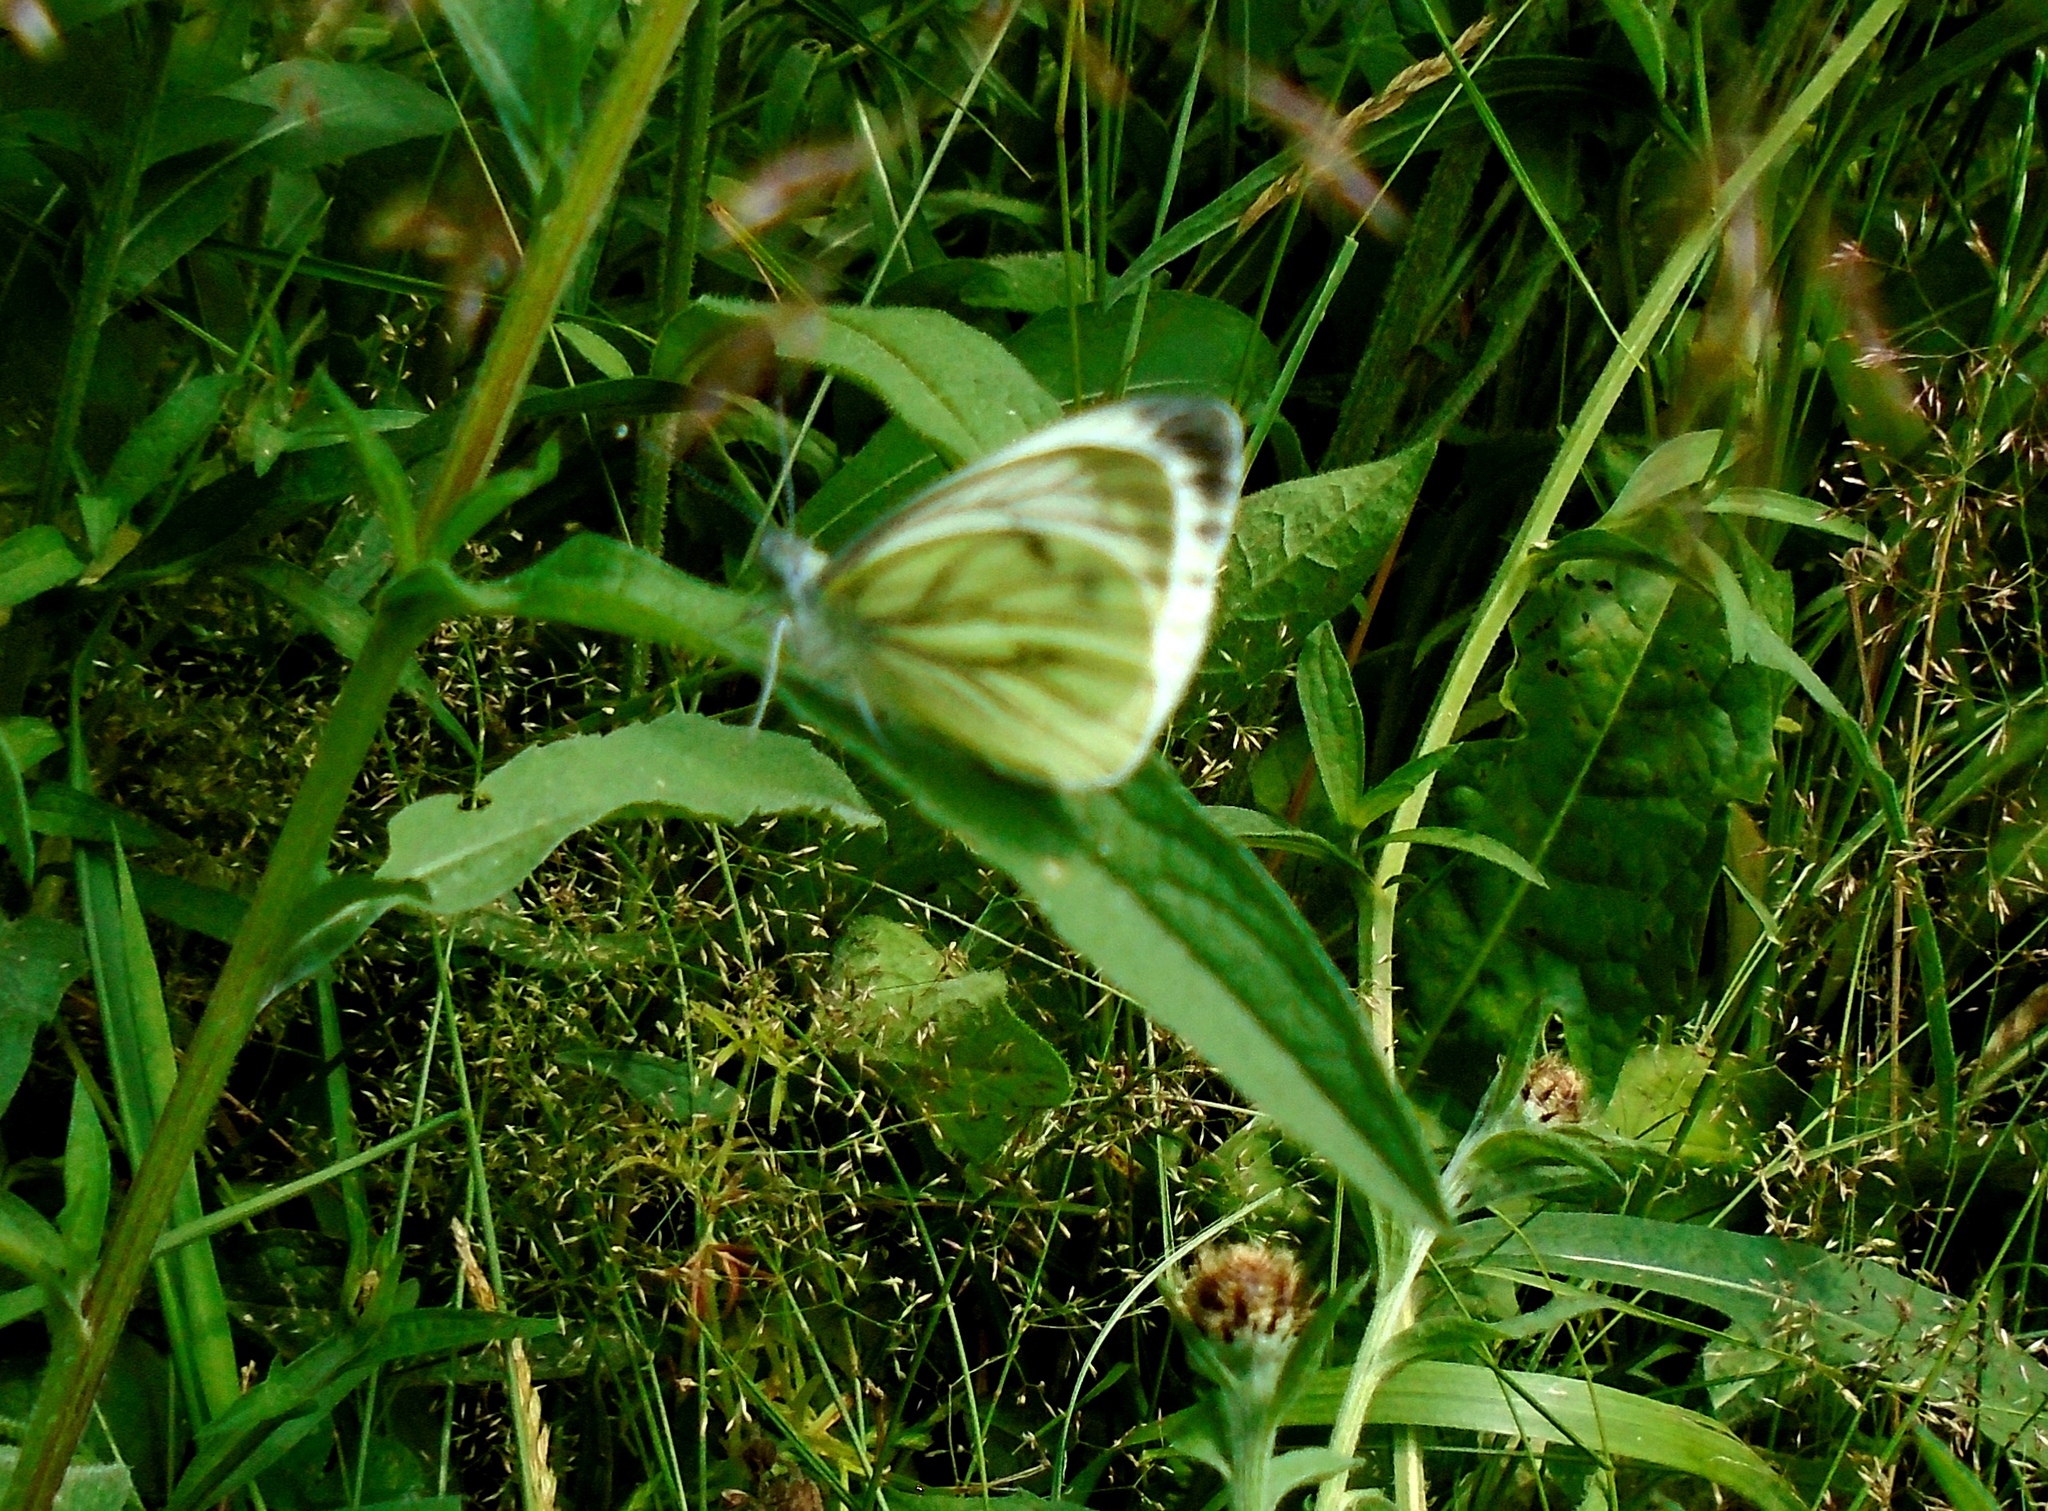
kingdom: Animalia
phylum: Arthropoda
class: Insecta
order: Lepidoptera
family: Pieridae
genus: Pieris
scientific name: Pieris napi
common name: Green-veined white
